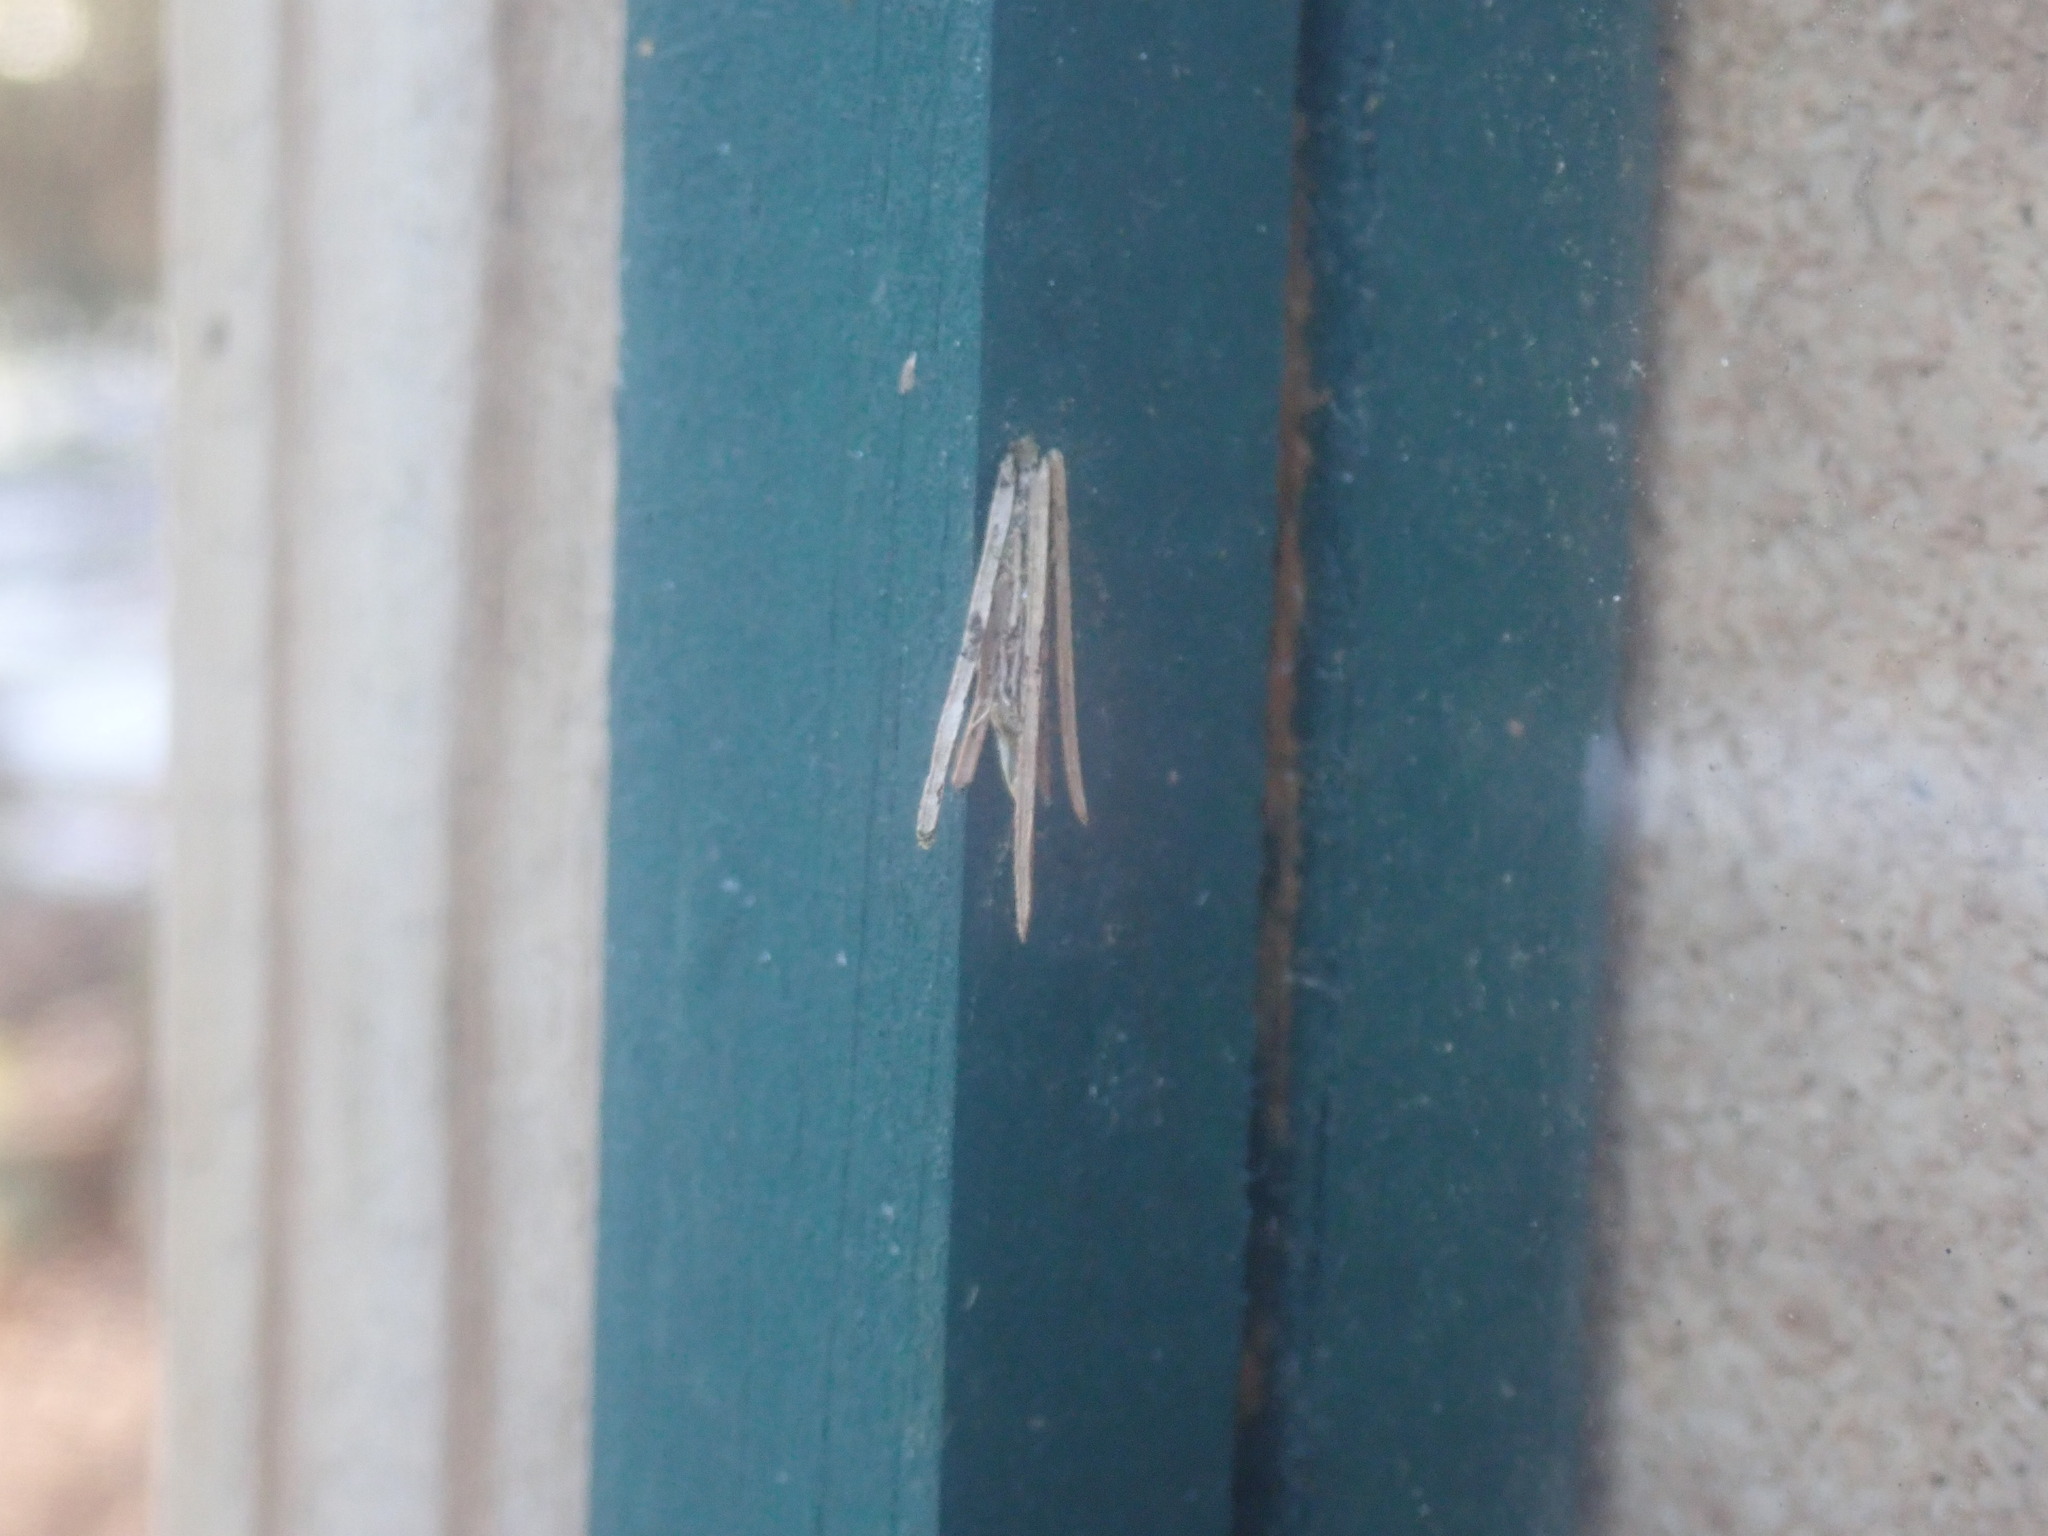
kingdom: Animalia
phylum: Arthropoda
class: Insecta
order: Lepidoptera
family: Psychidae
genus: Psyche
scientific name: Psyche casta
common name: Common sweep
